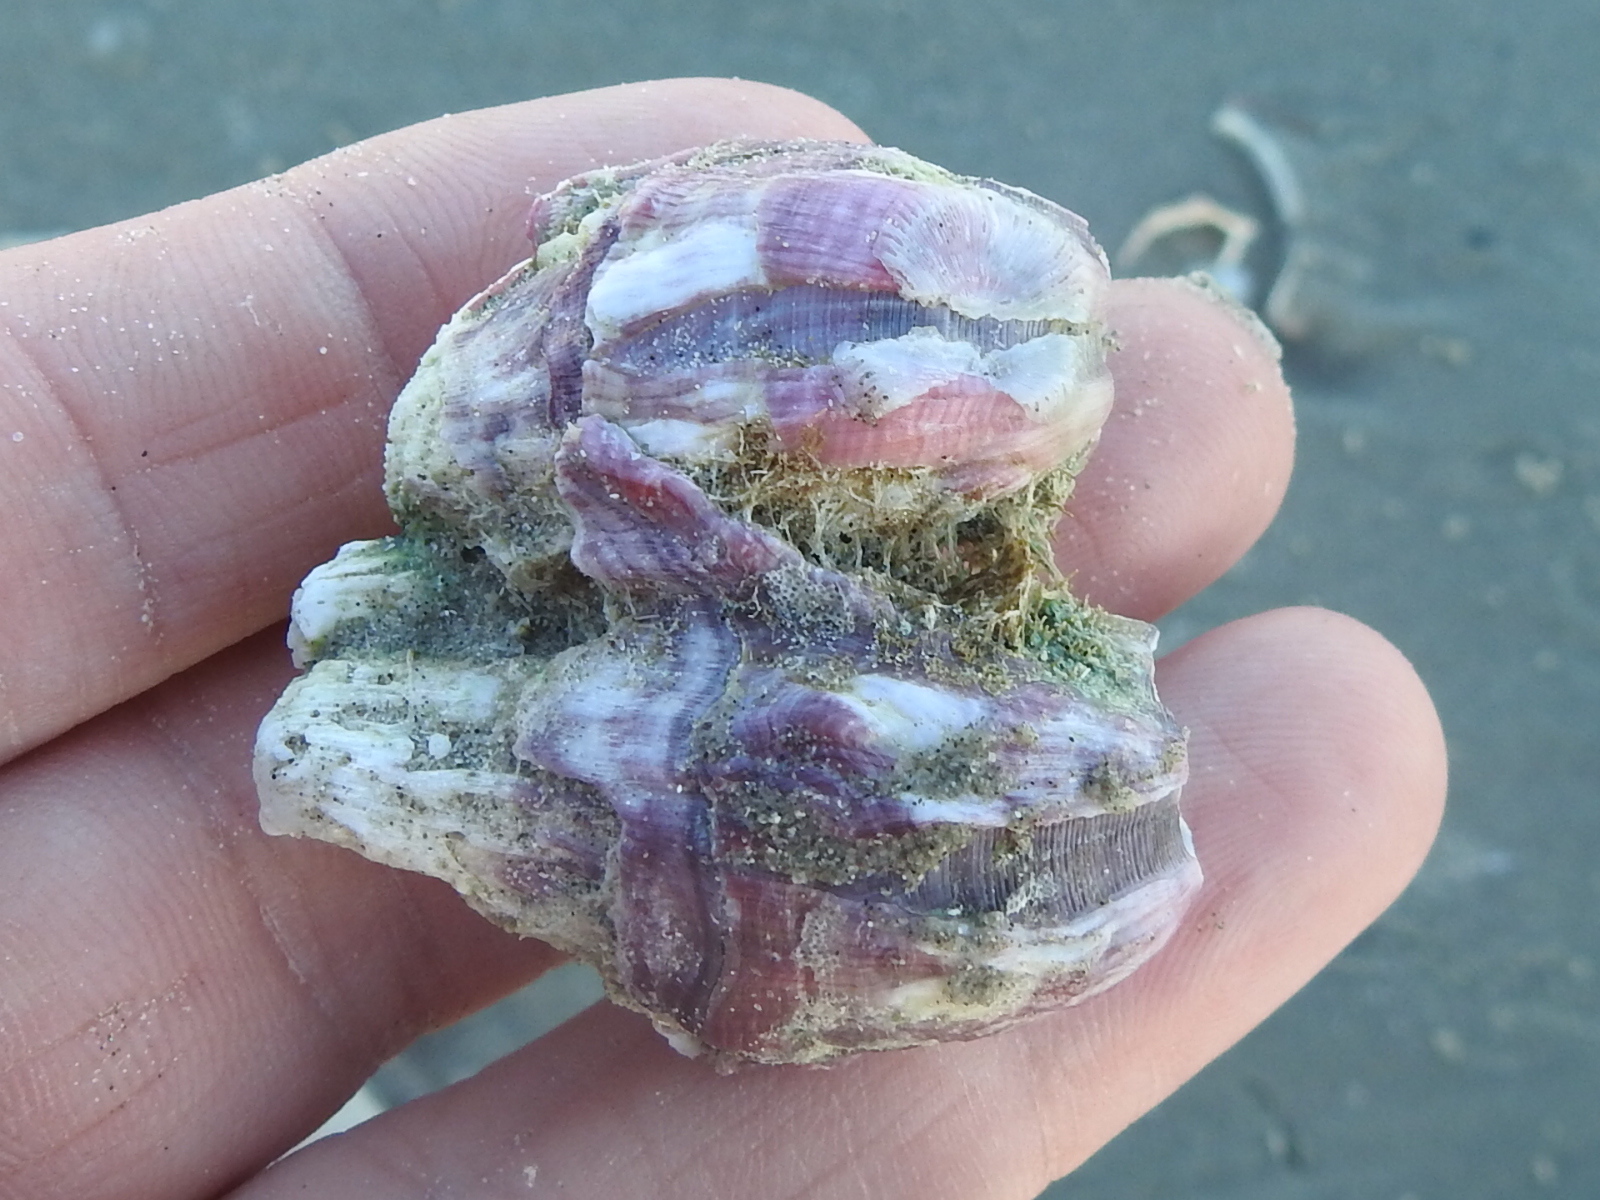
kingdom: Animalia
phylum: Arthropoda
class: Maxillopoda
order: Sessilia
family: Balanidae
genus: Megabalanus
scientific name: Megabalanus tintinnabulum
